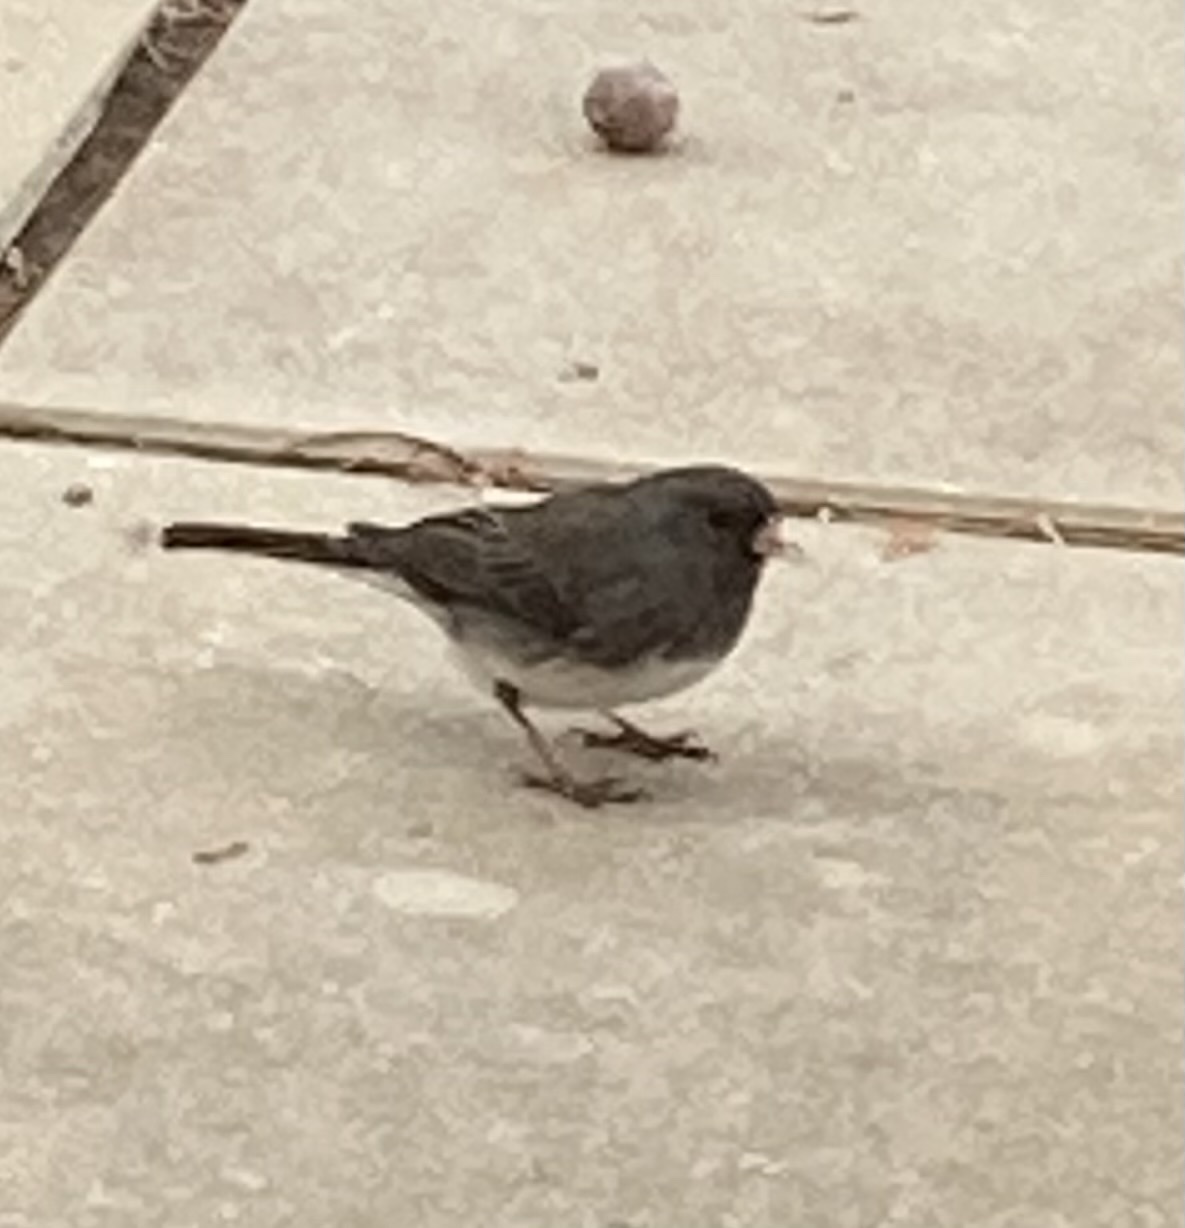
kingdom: Animalia
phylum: Chordata
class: Aves
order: Passeriformes
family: Passerellidae
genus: Junco
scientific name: Junco hyemalis
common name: Dark-eyed junco
